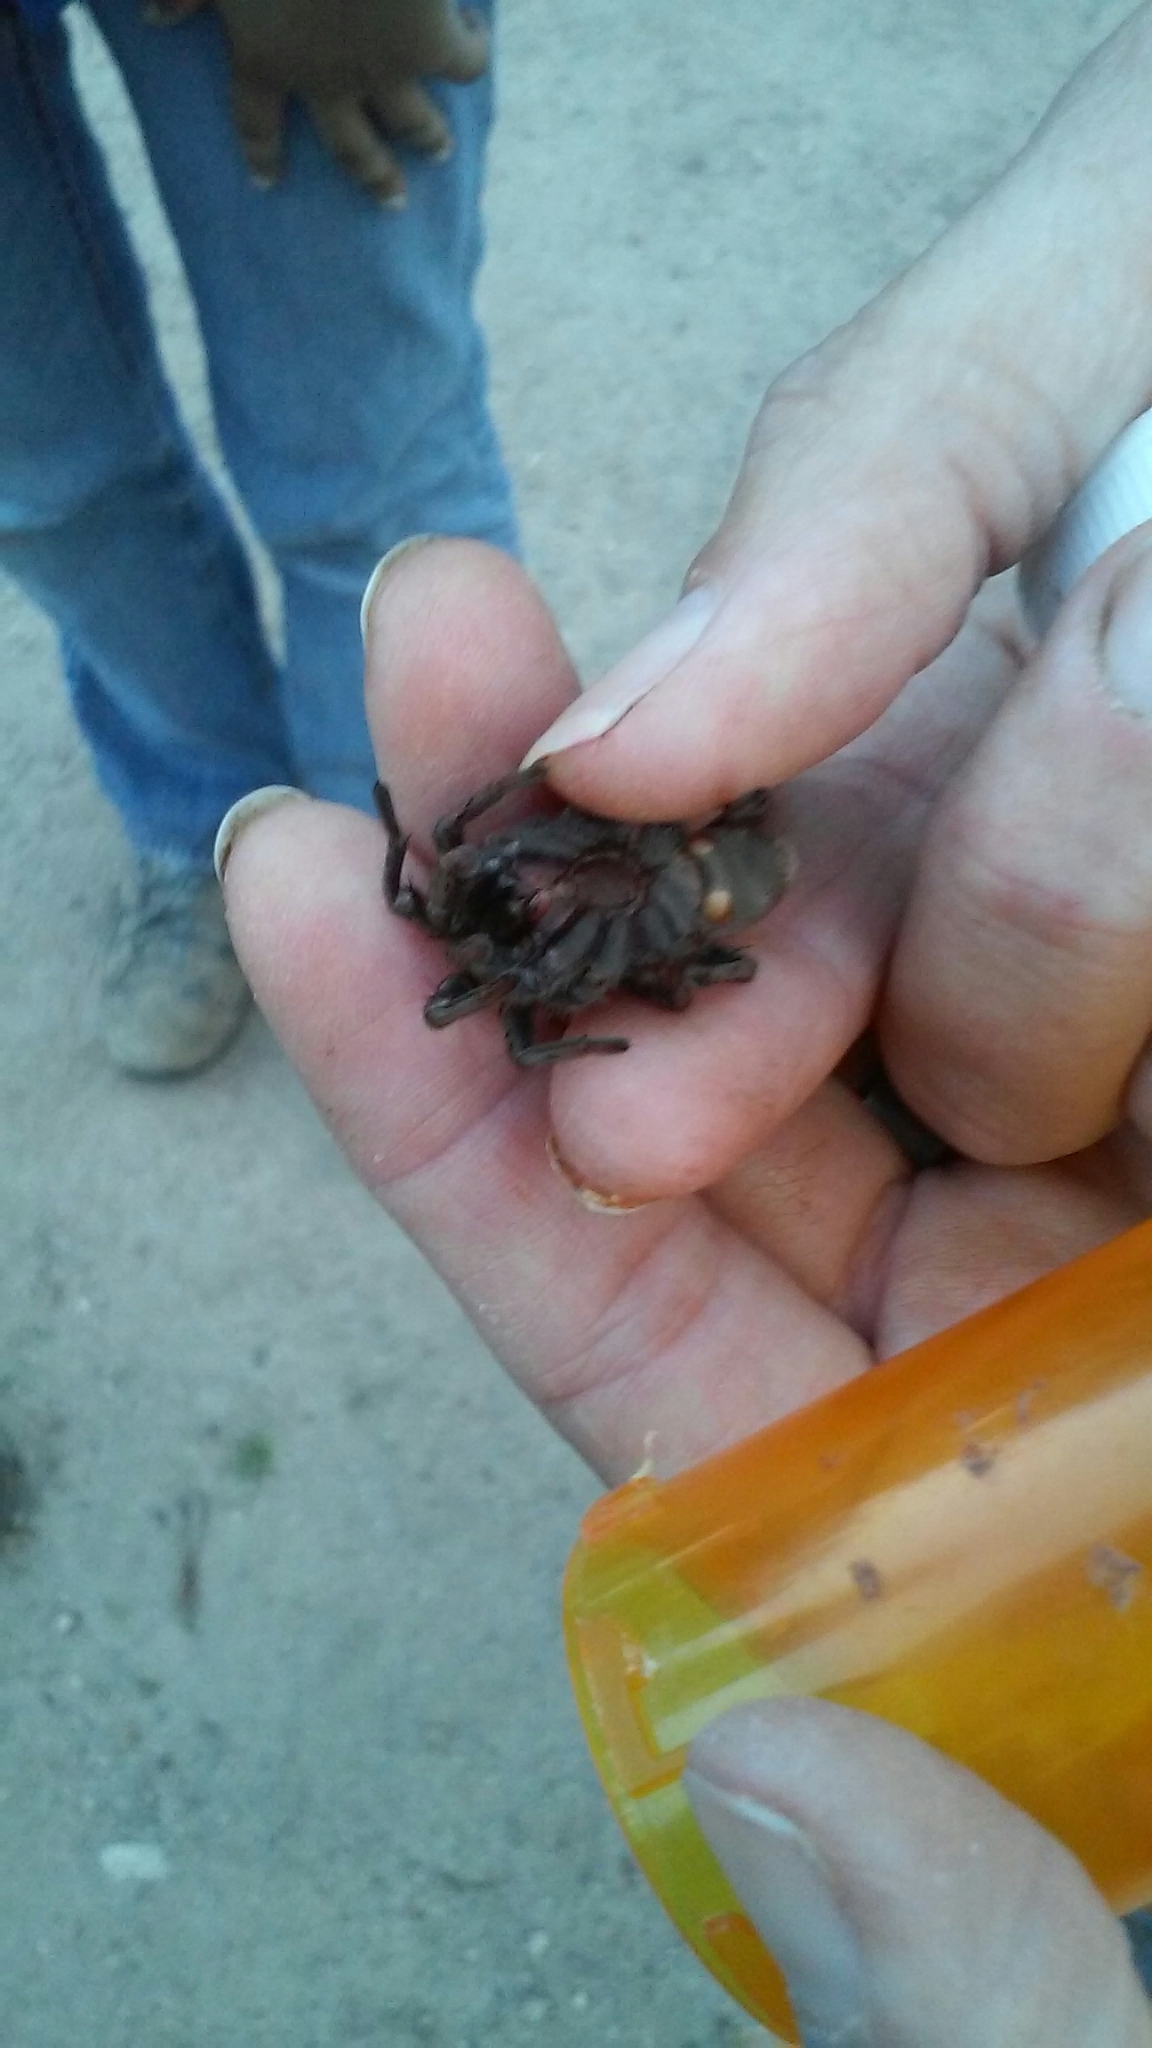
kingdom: Animalia
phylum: Arthropoda
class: Arachnida
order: Araneae
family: Nemesiidae
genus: Calisoga
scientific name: Calisoga longitarsis
